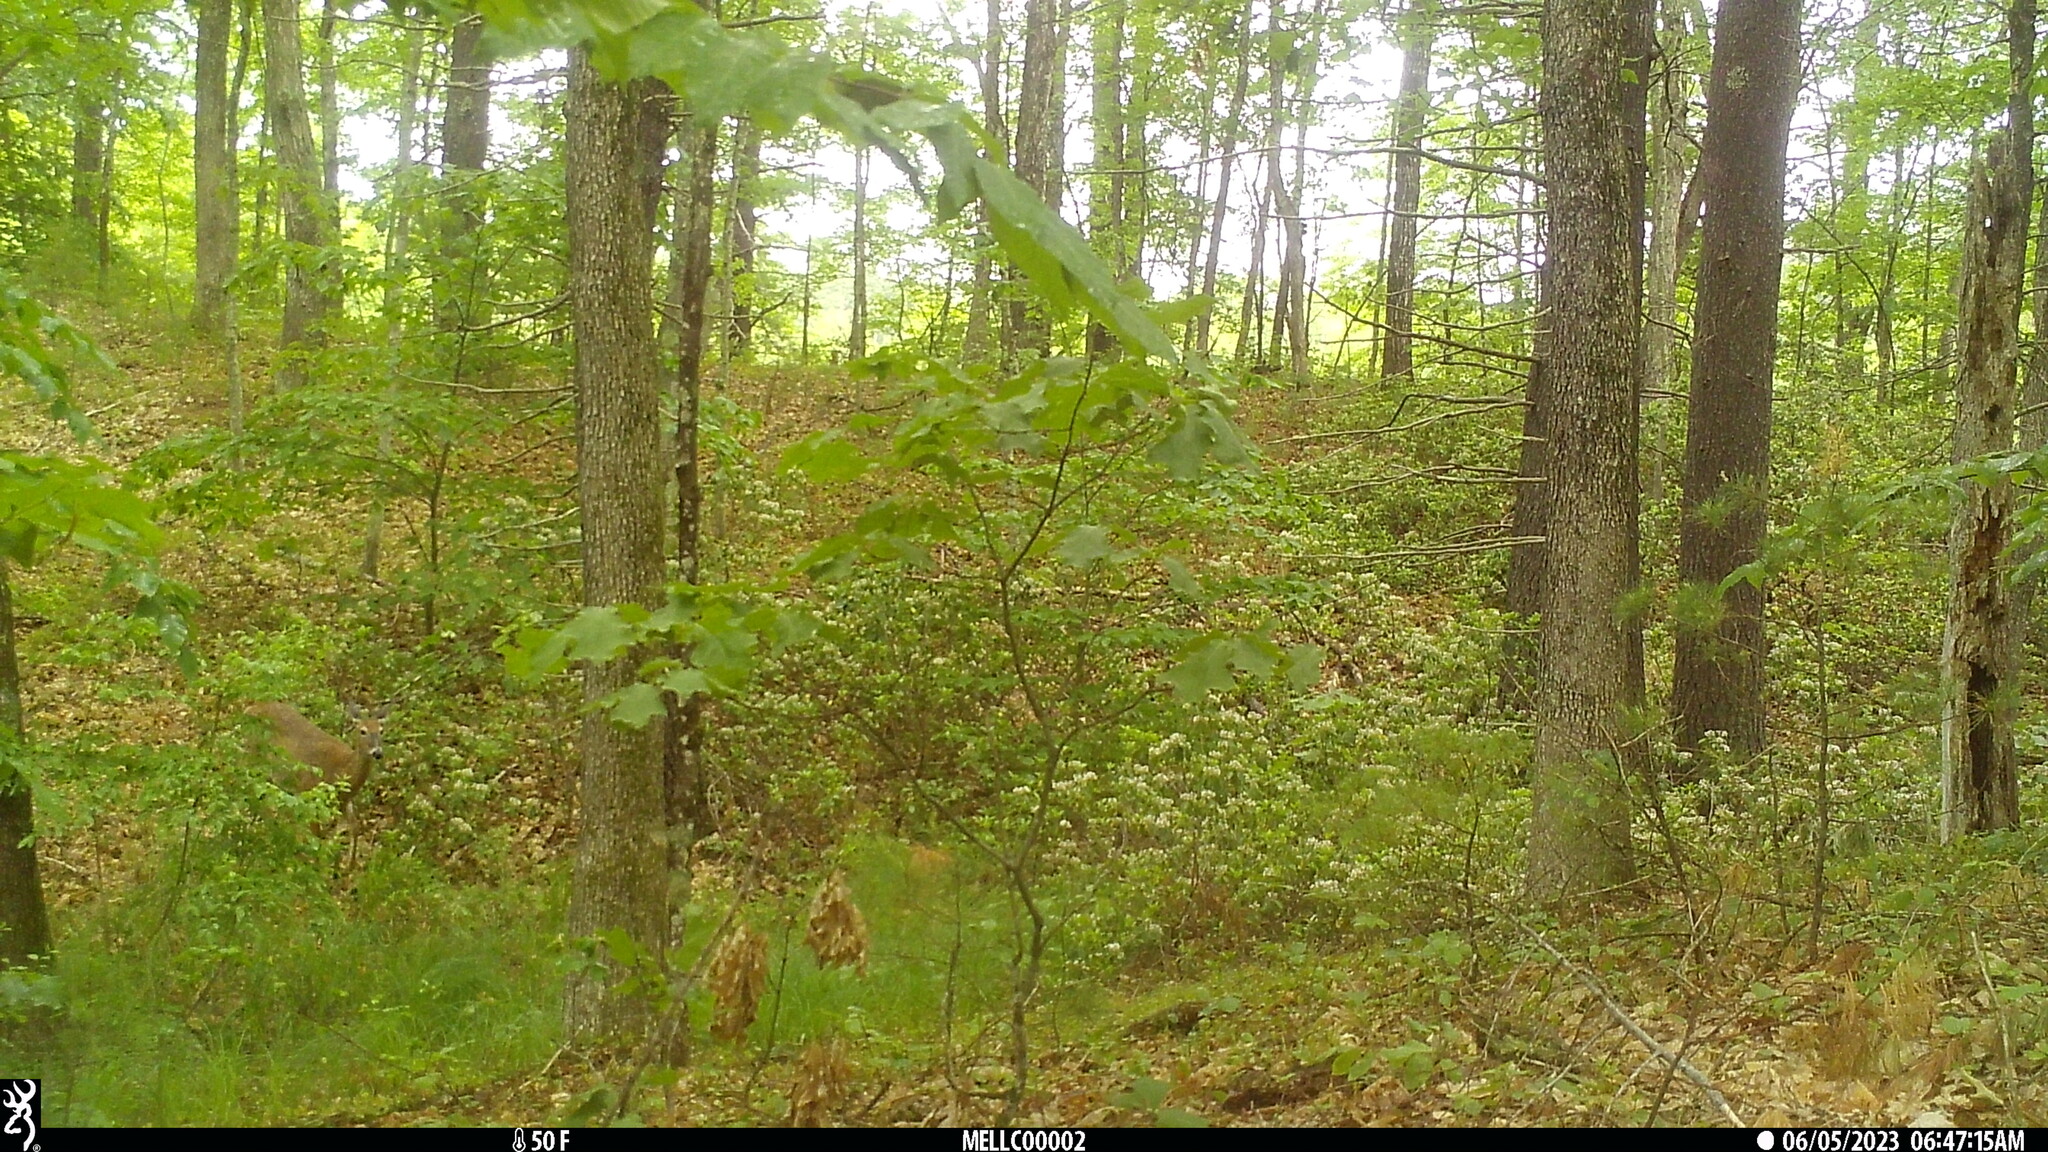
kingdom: Animalia
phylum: Chordata
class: Mammalia
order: Artiodactyla
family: Cervidae
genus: Odocoileus
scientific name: Odocoileus virginianus
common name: White-tailed deer
